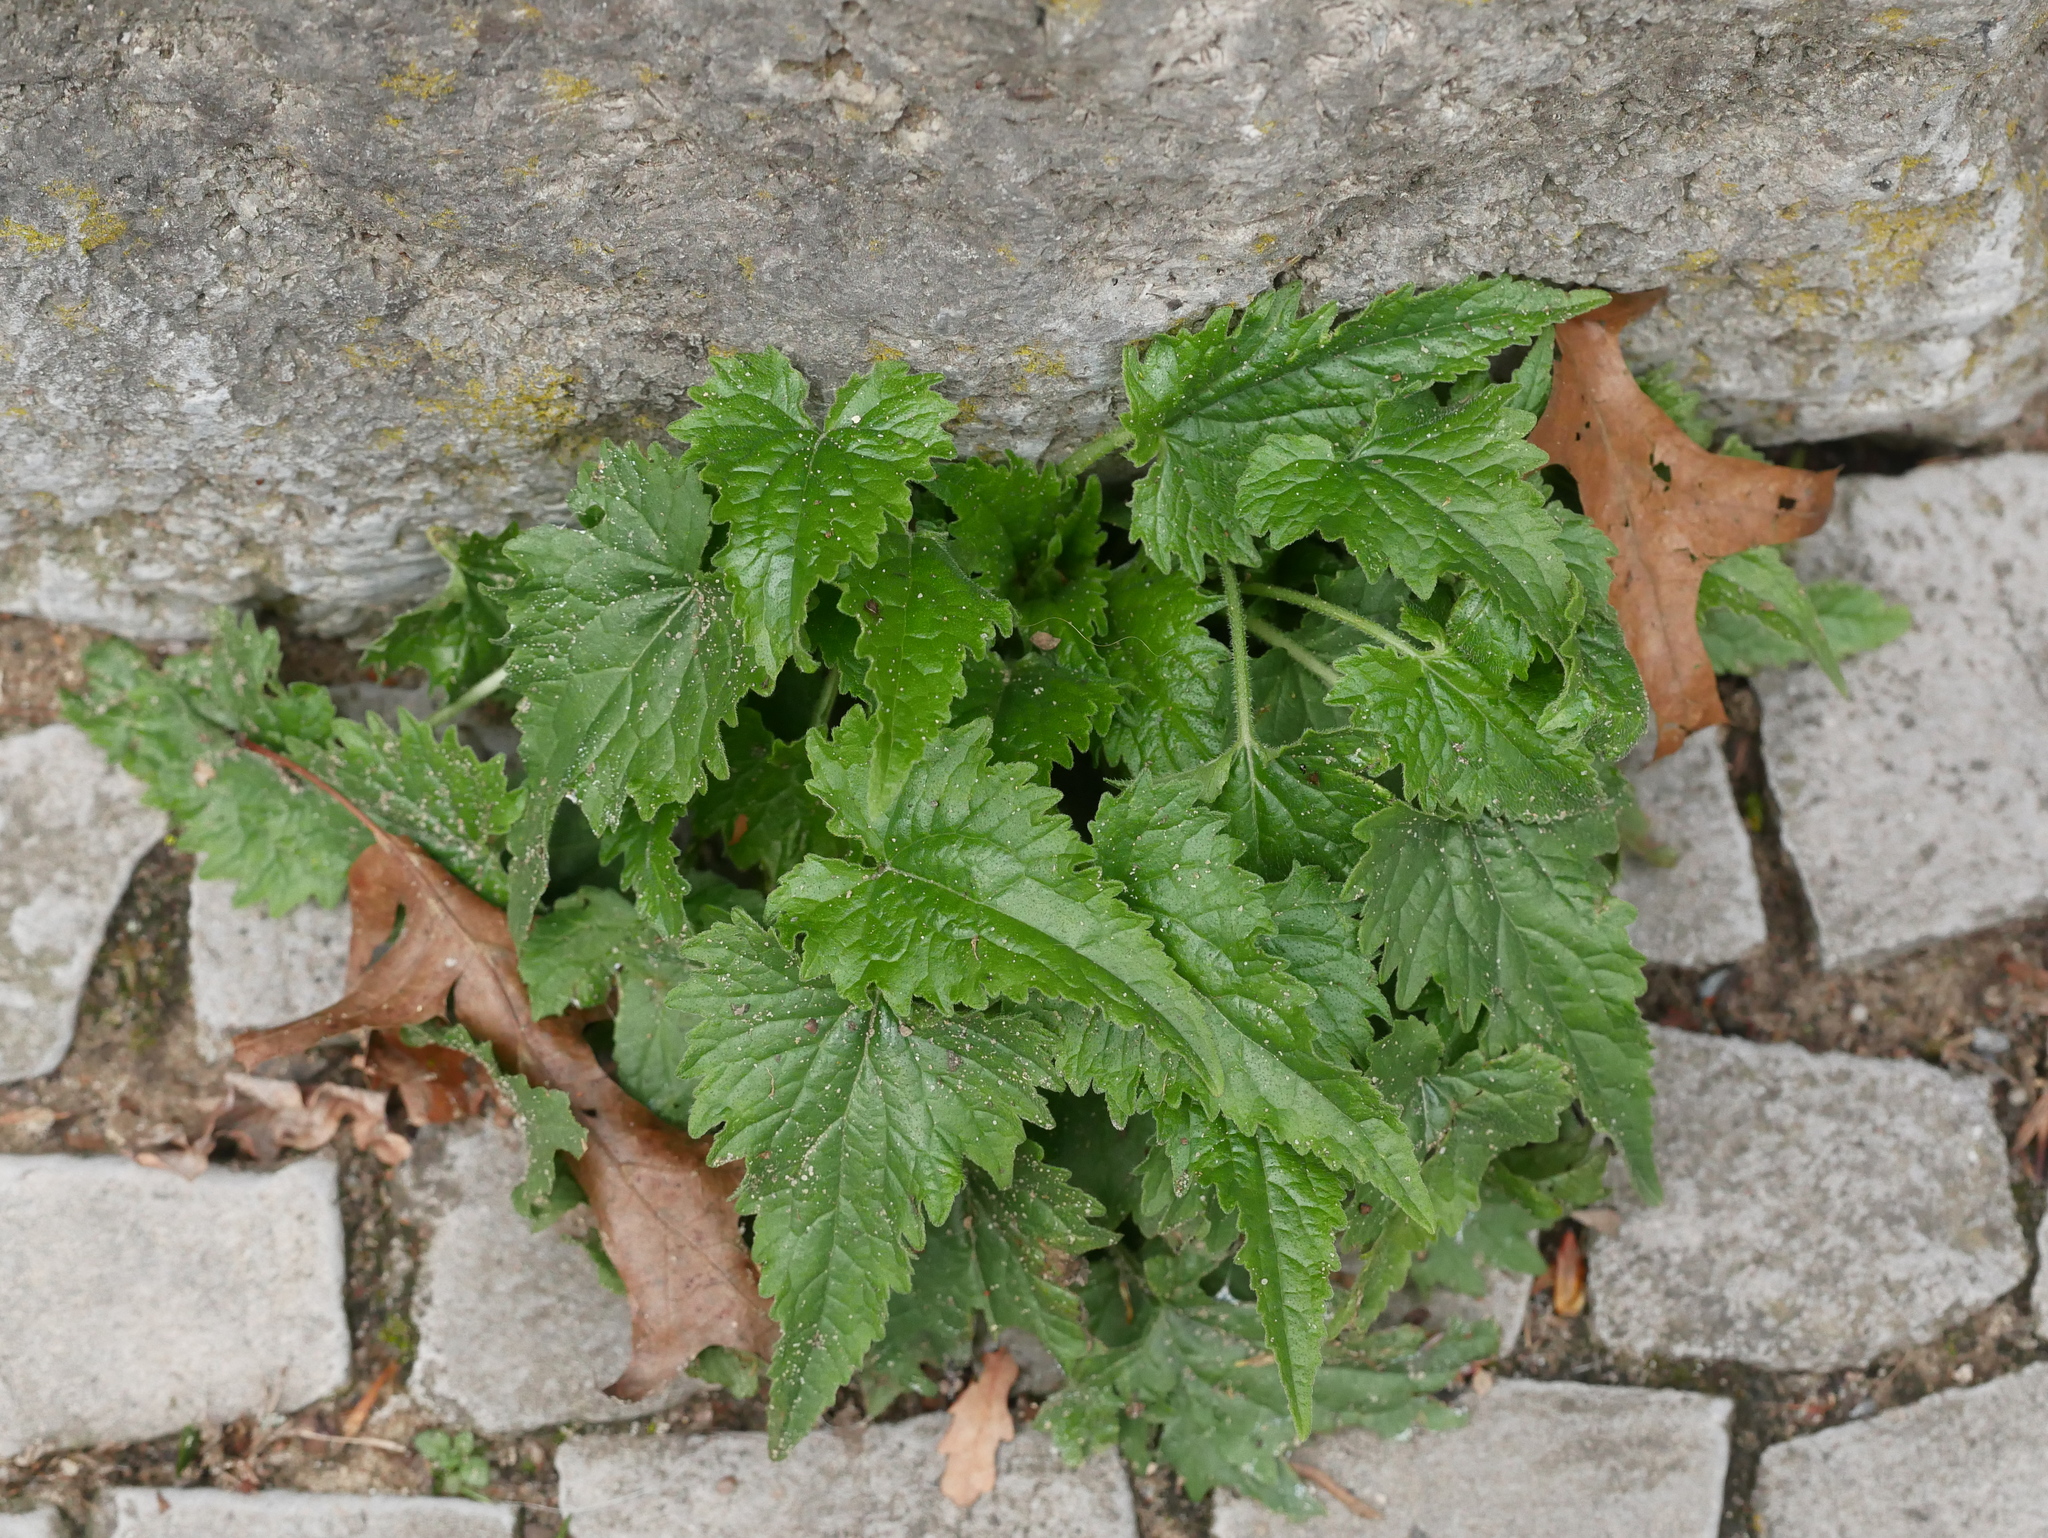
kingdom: Plantae
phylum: Tracheophyta
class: Magnoliopsida
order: Asterales
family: Campanulaceae
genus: Campanula
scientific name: Campanula trachelium
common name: Nettle-leaved bellflower
